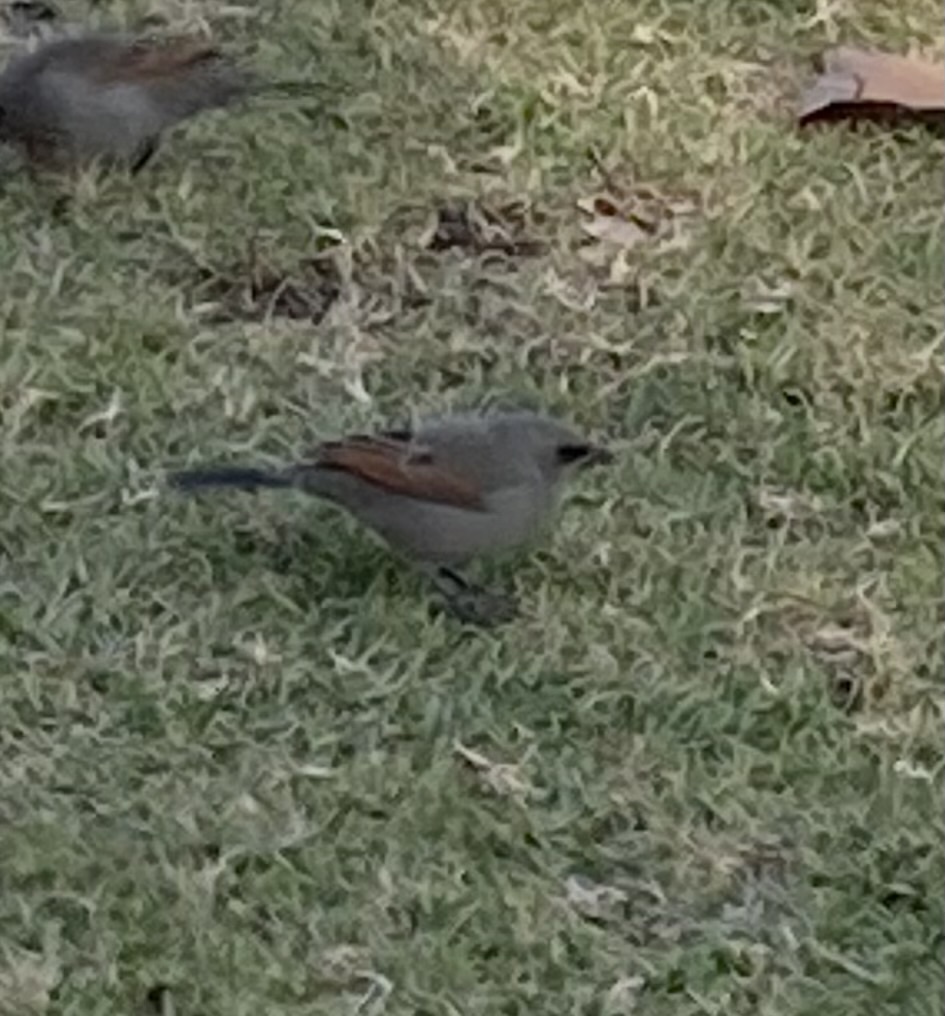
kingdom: Animalia
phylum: Chordata
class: Aves
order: Passeriformes
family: Icteridae
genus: Agelaioides
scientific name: Agelaioides badius
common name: Baywing
